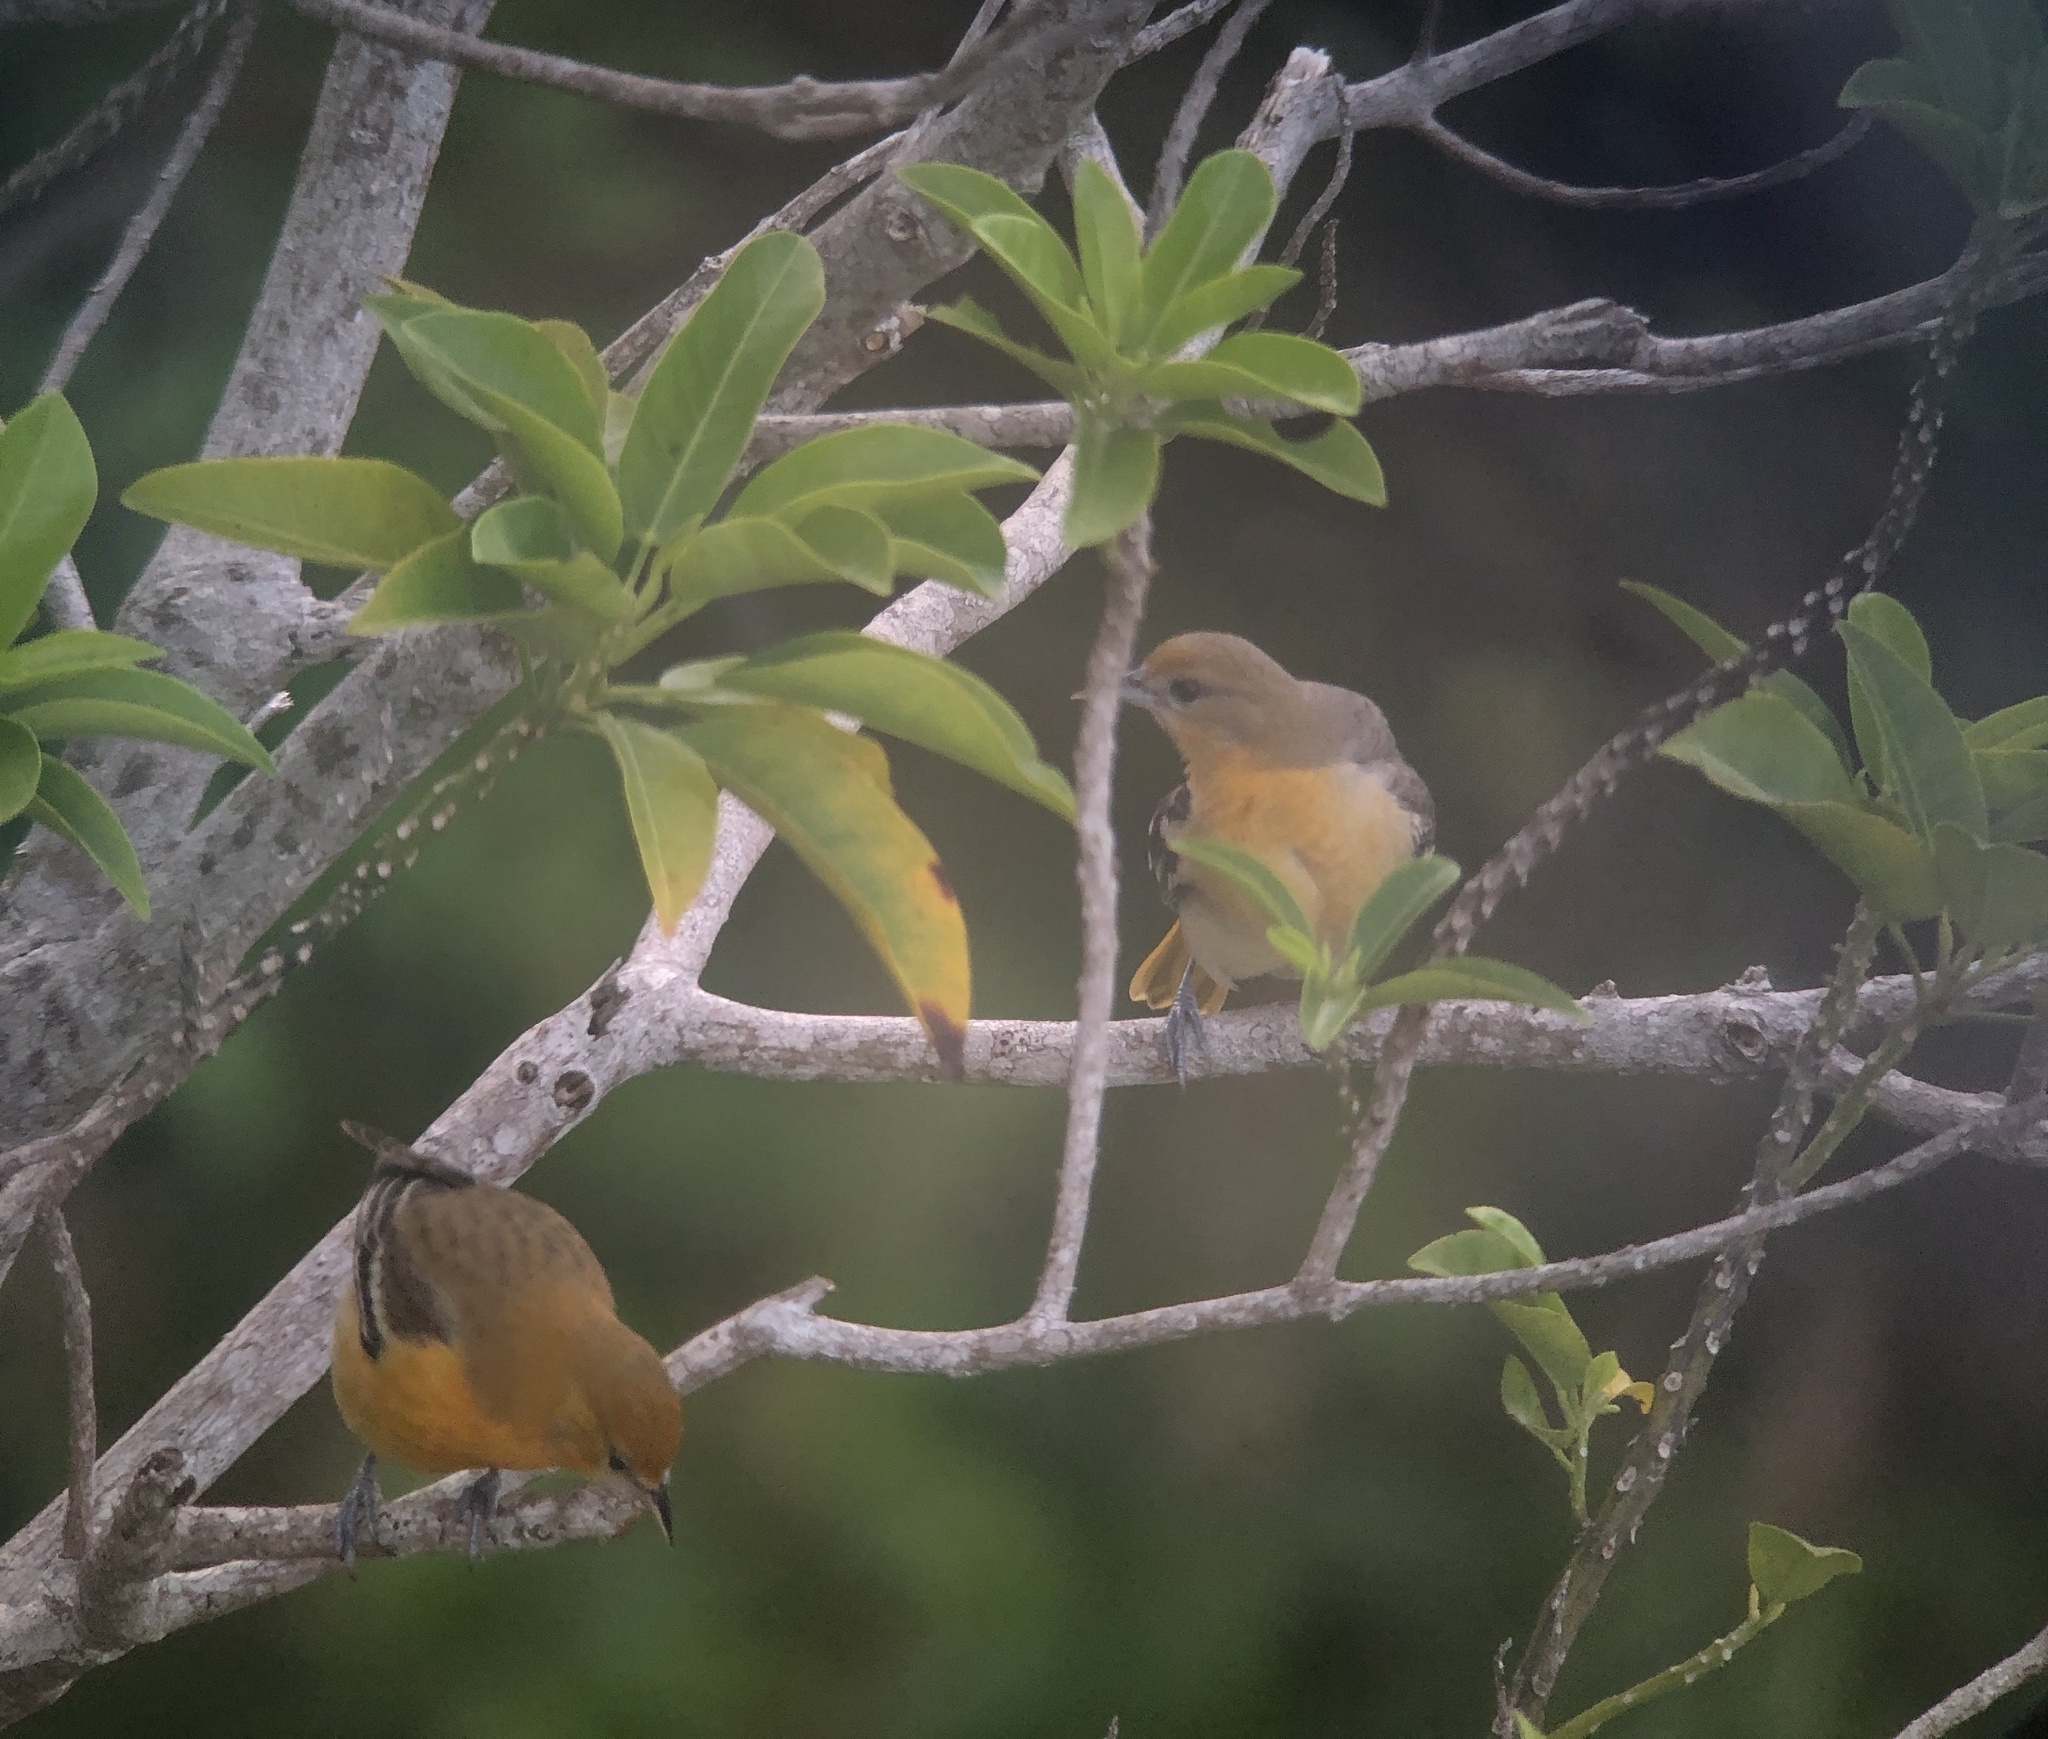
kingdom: Animalia
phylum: Chordata
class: Aves
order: Passeriformes
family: Icteridae
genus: Icterus
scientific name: Icterus galbula
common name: Baltimore oriole
